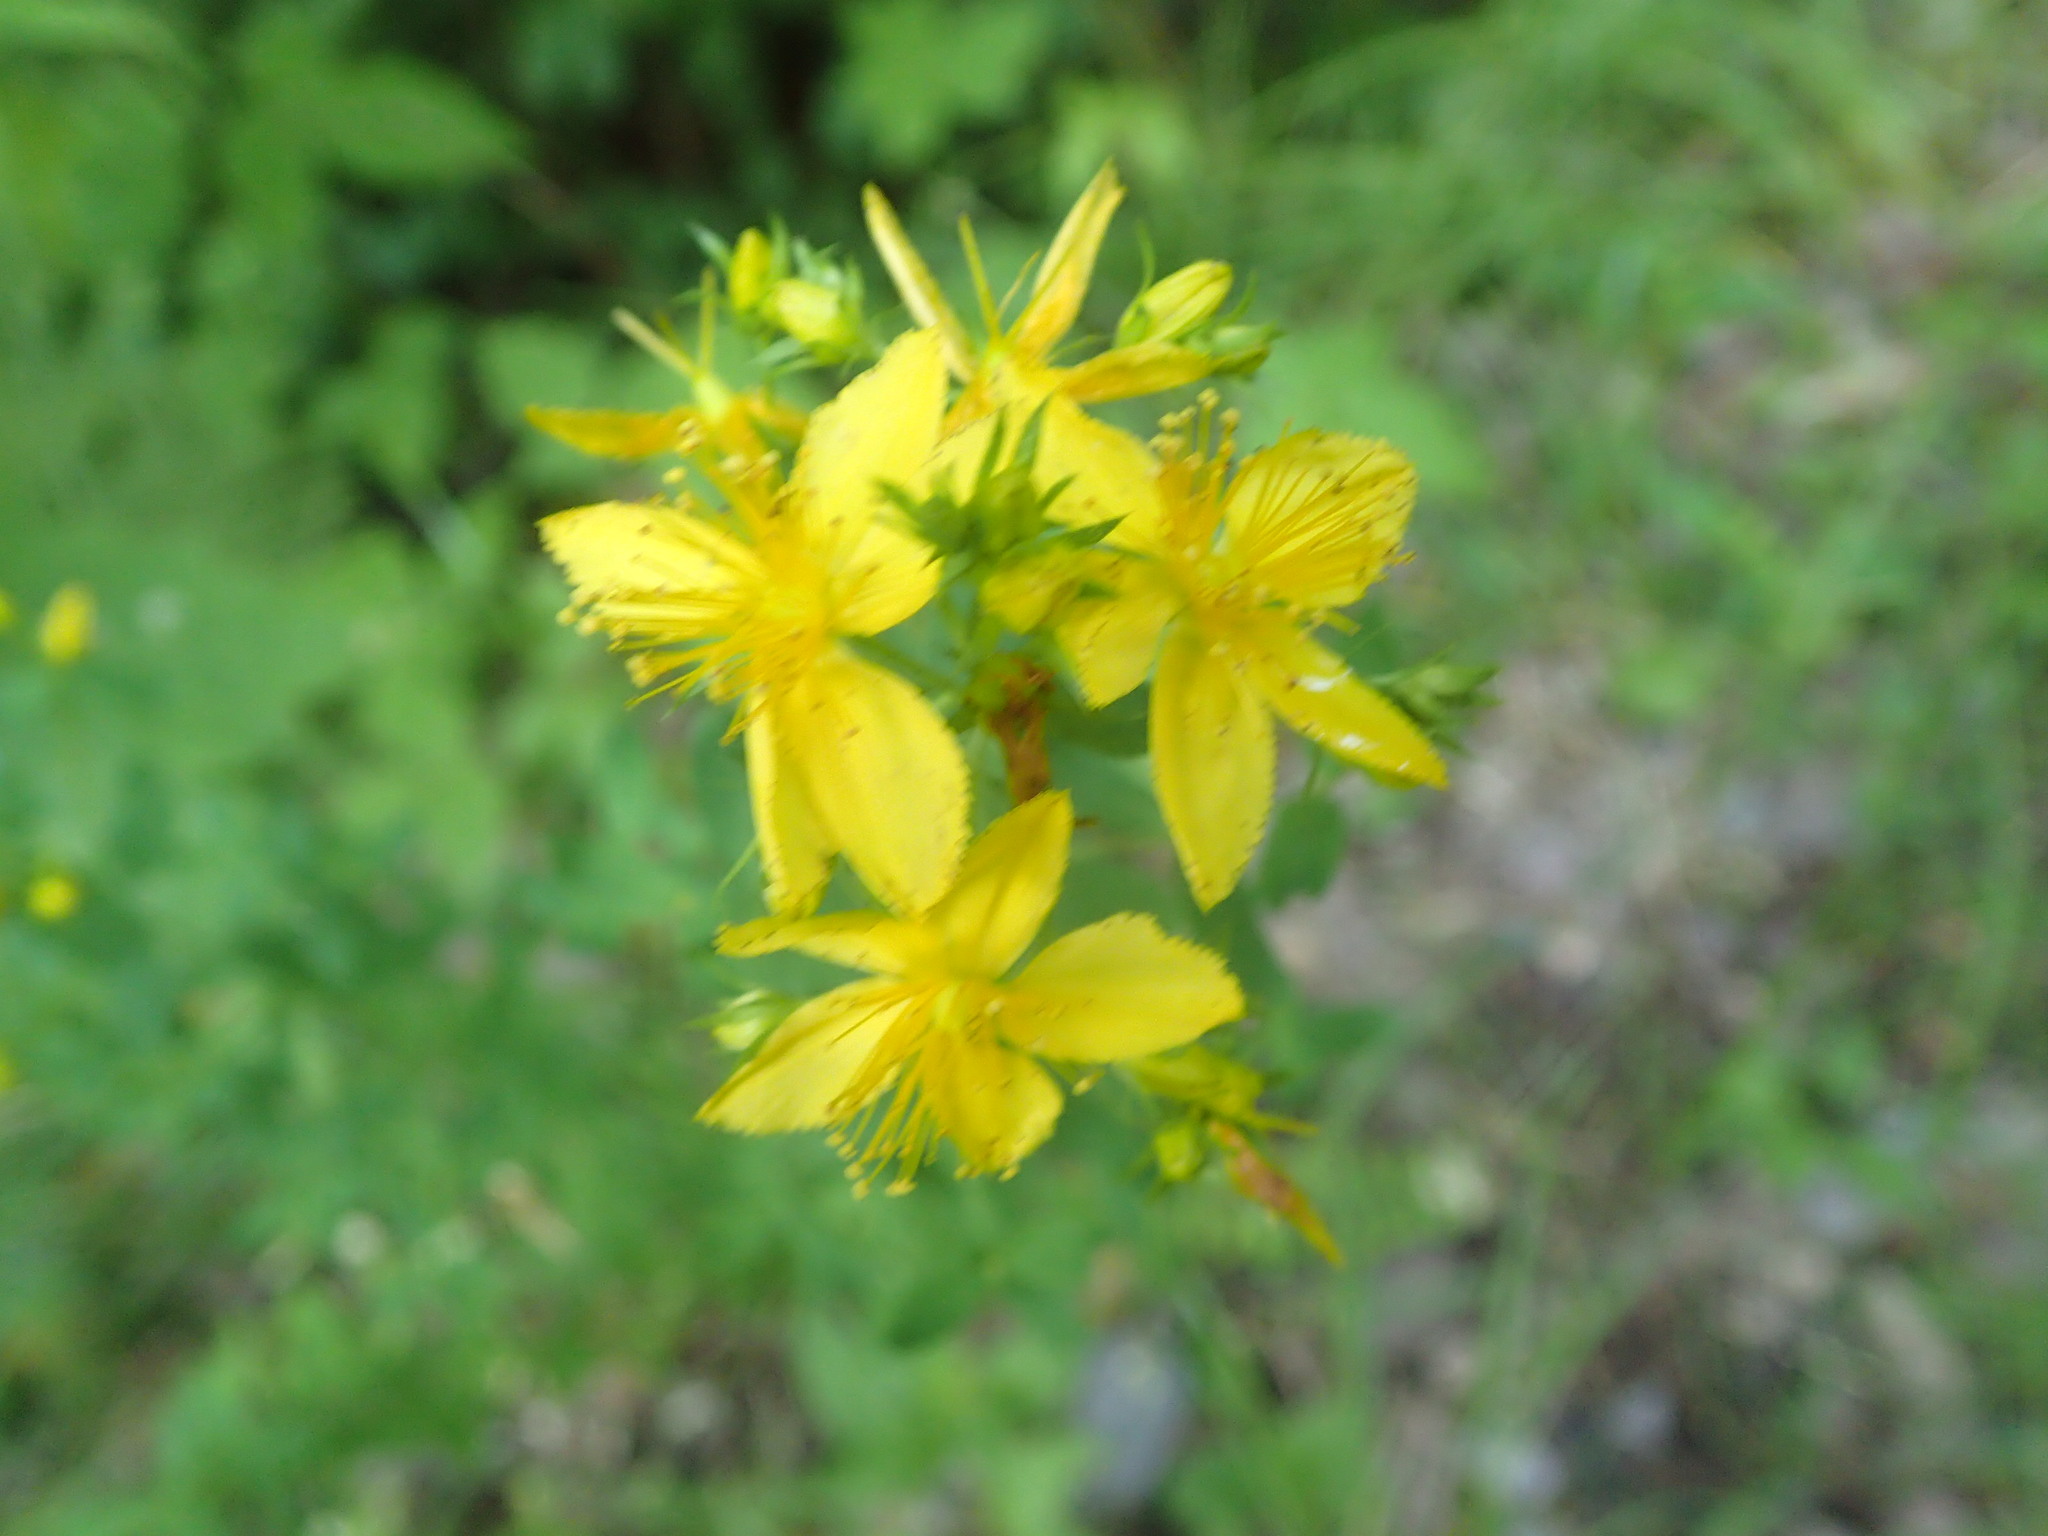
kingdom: Plantae
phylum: Tracheophyta
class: Magnoliopsida
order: Malpighiales
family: Hypericaceae
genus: Hypericum
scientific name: Hypericum perforatum
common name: Common st. johnswort
